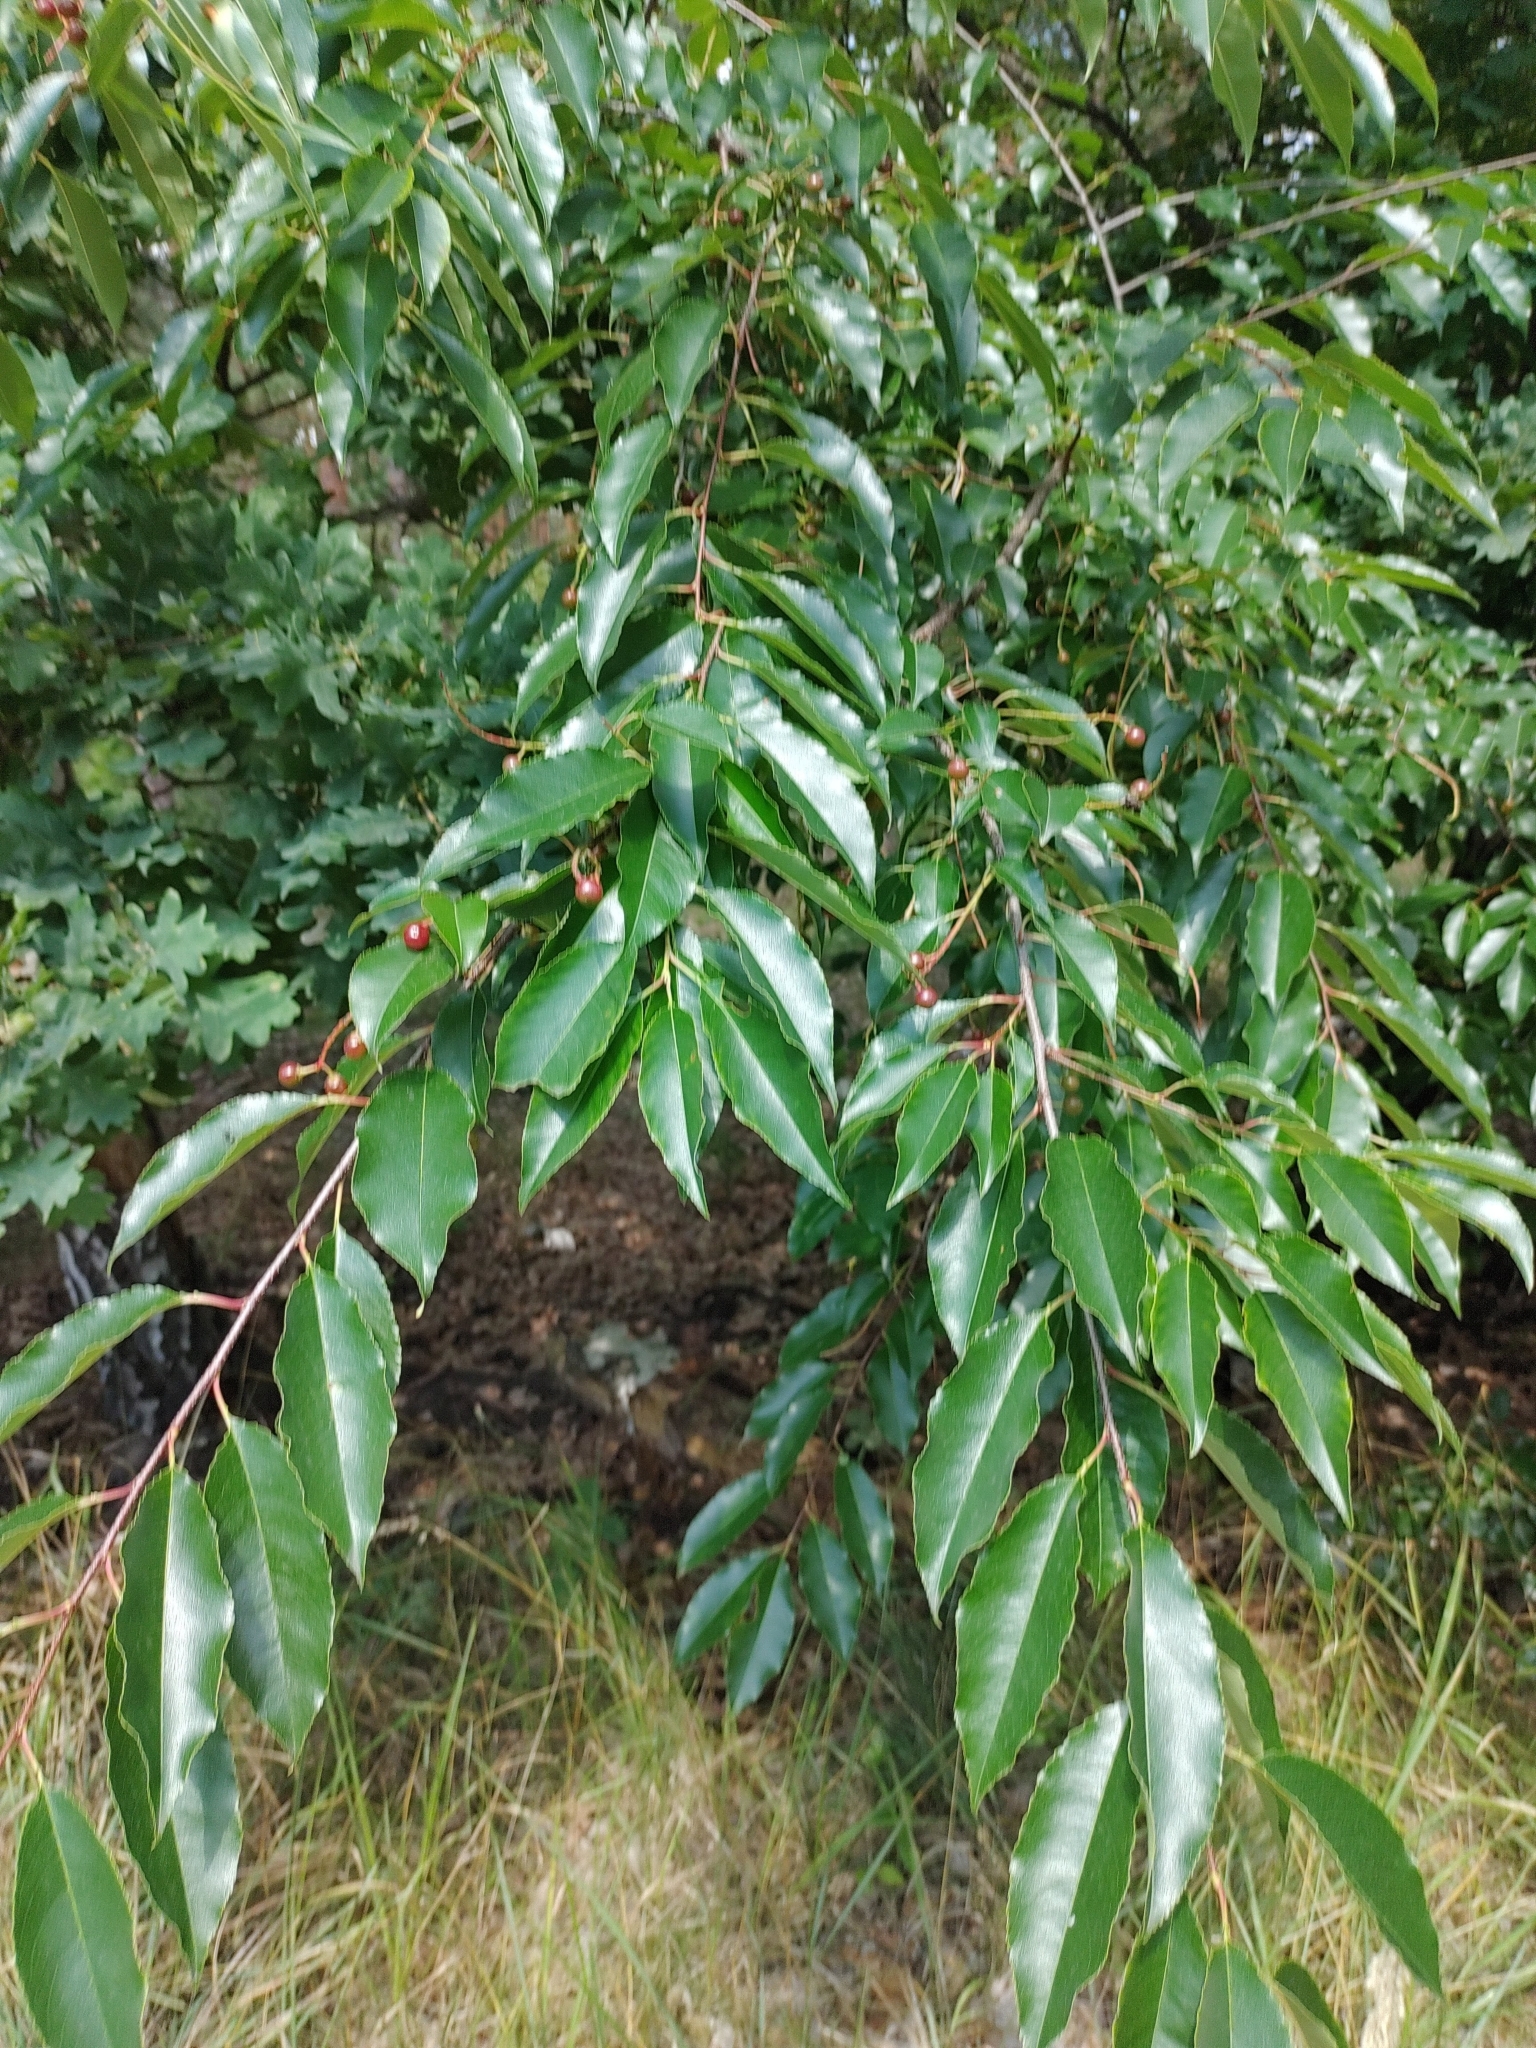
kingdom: Plantae
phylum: Tracheophyta
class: Magnoliopsida
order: Rosales
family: Rosaceae
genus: Prunus
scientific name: Prunus serotina
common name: Black cherry
